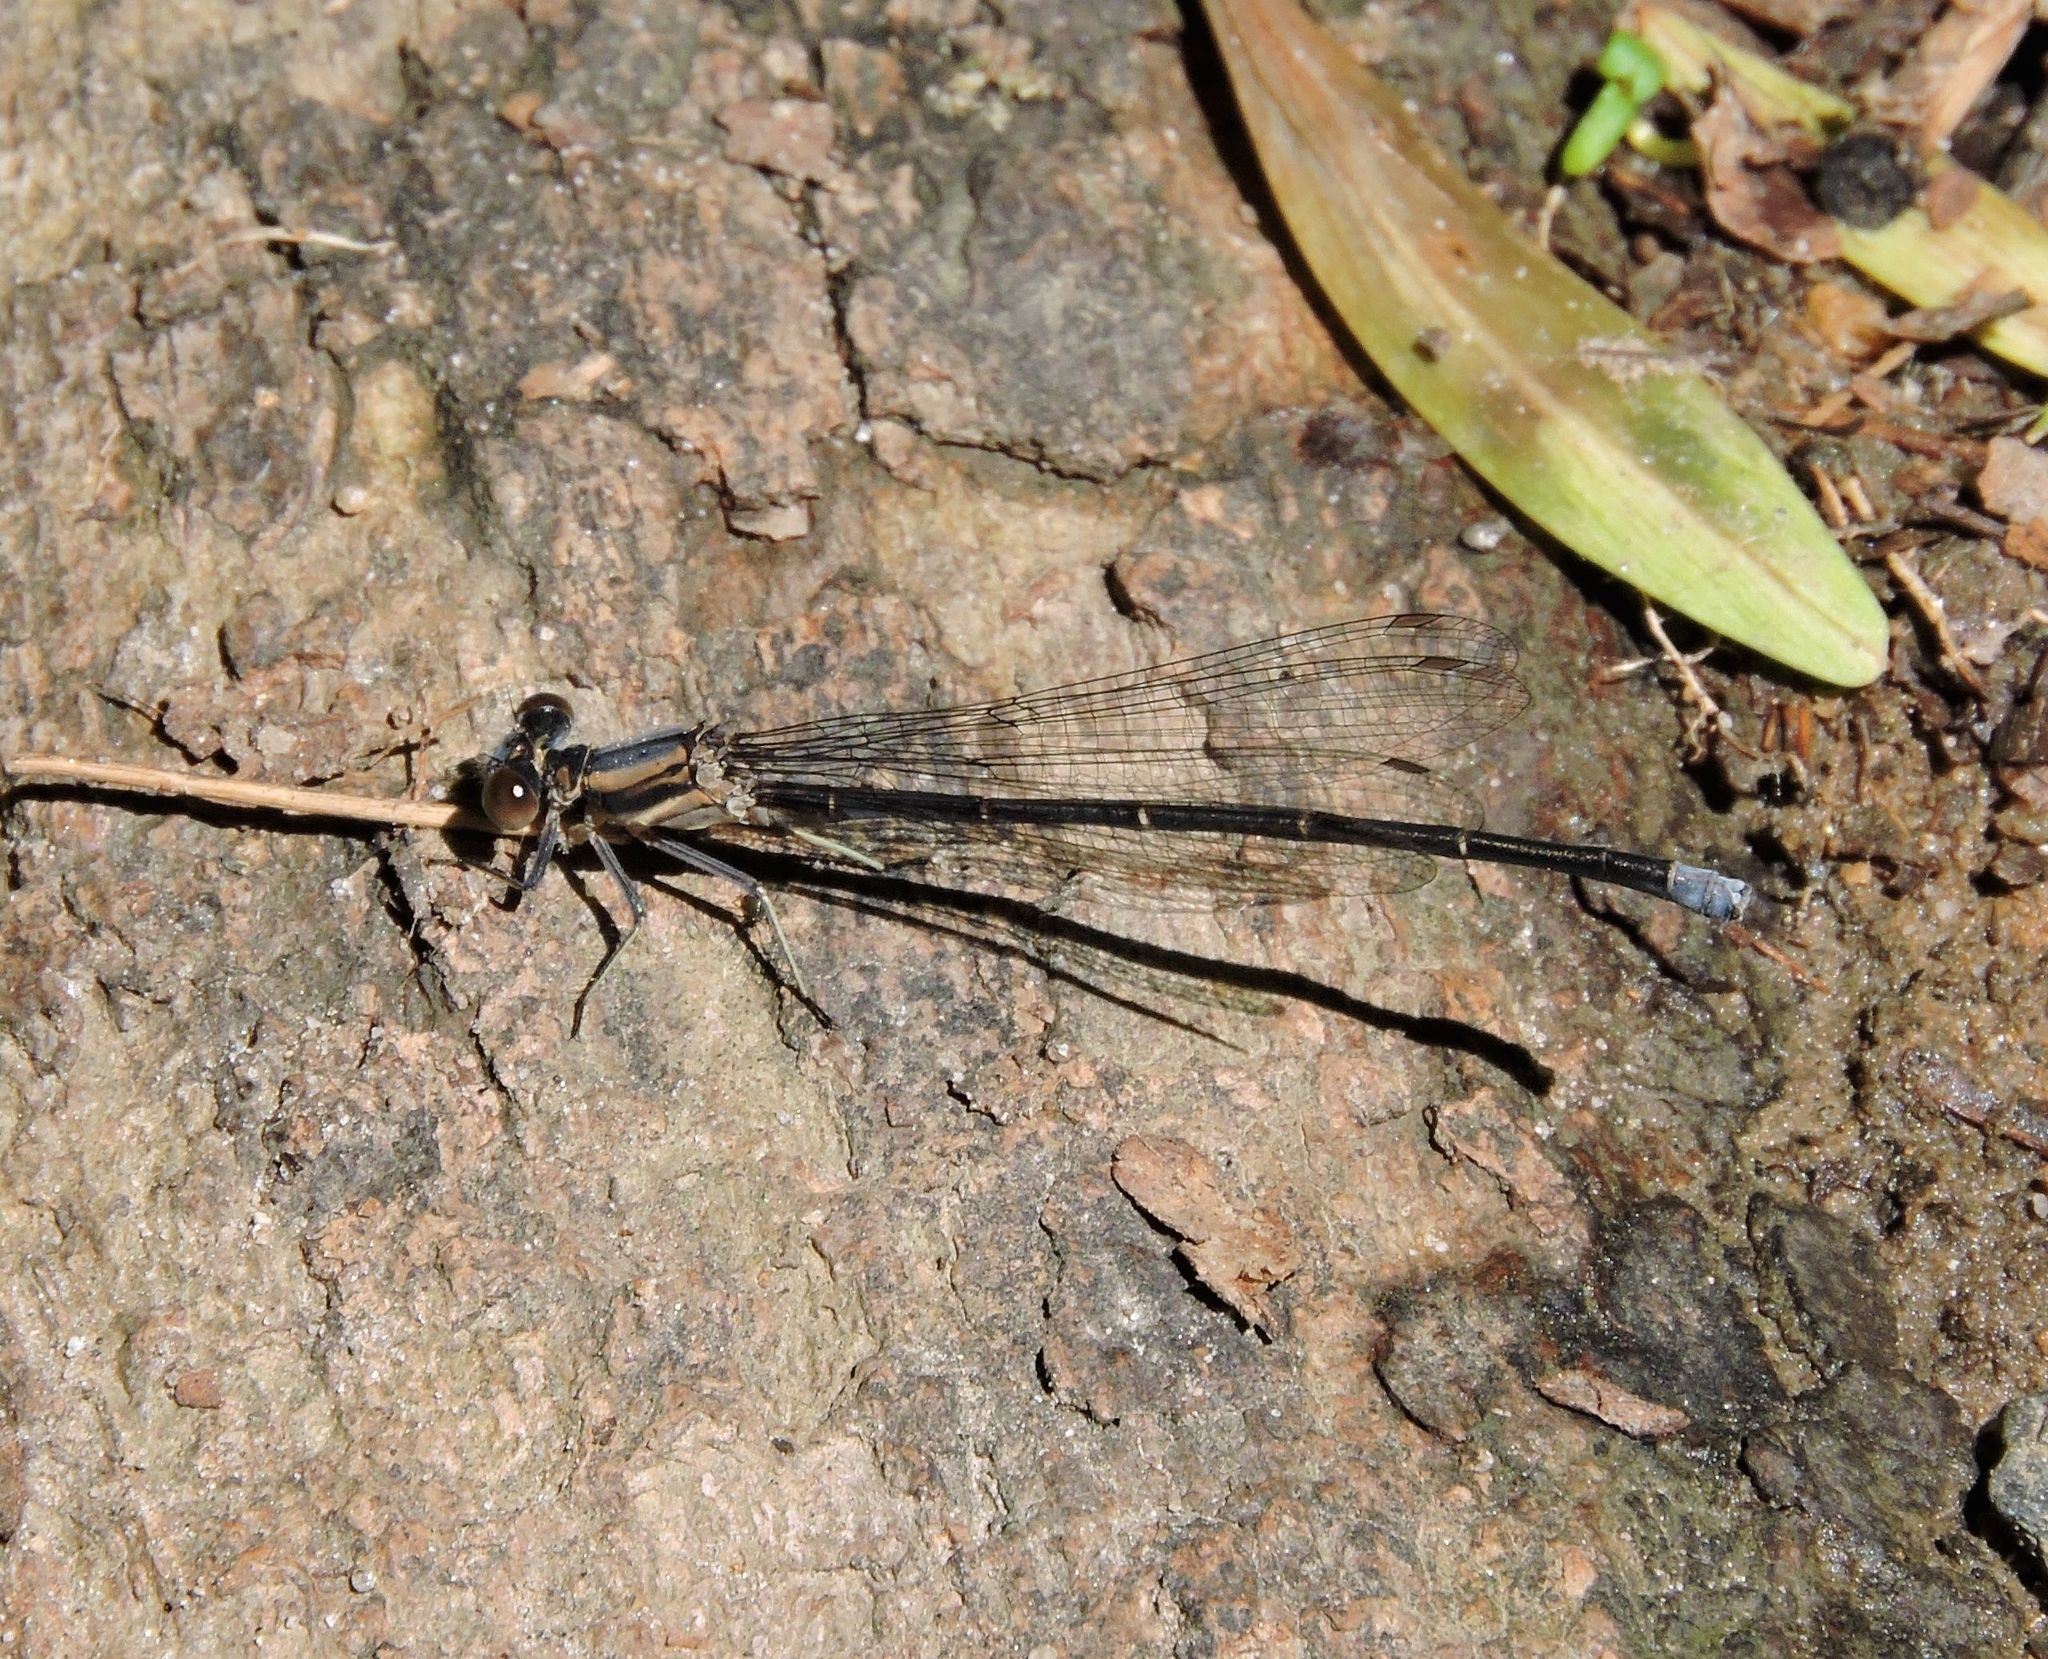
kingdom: Animalia
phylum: Arthropoda
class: Insecta
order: Odonata
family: Coenagrionidae
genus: Argia
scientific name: Argia moesta
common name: Powdered dancer
